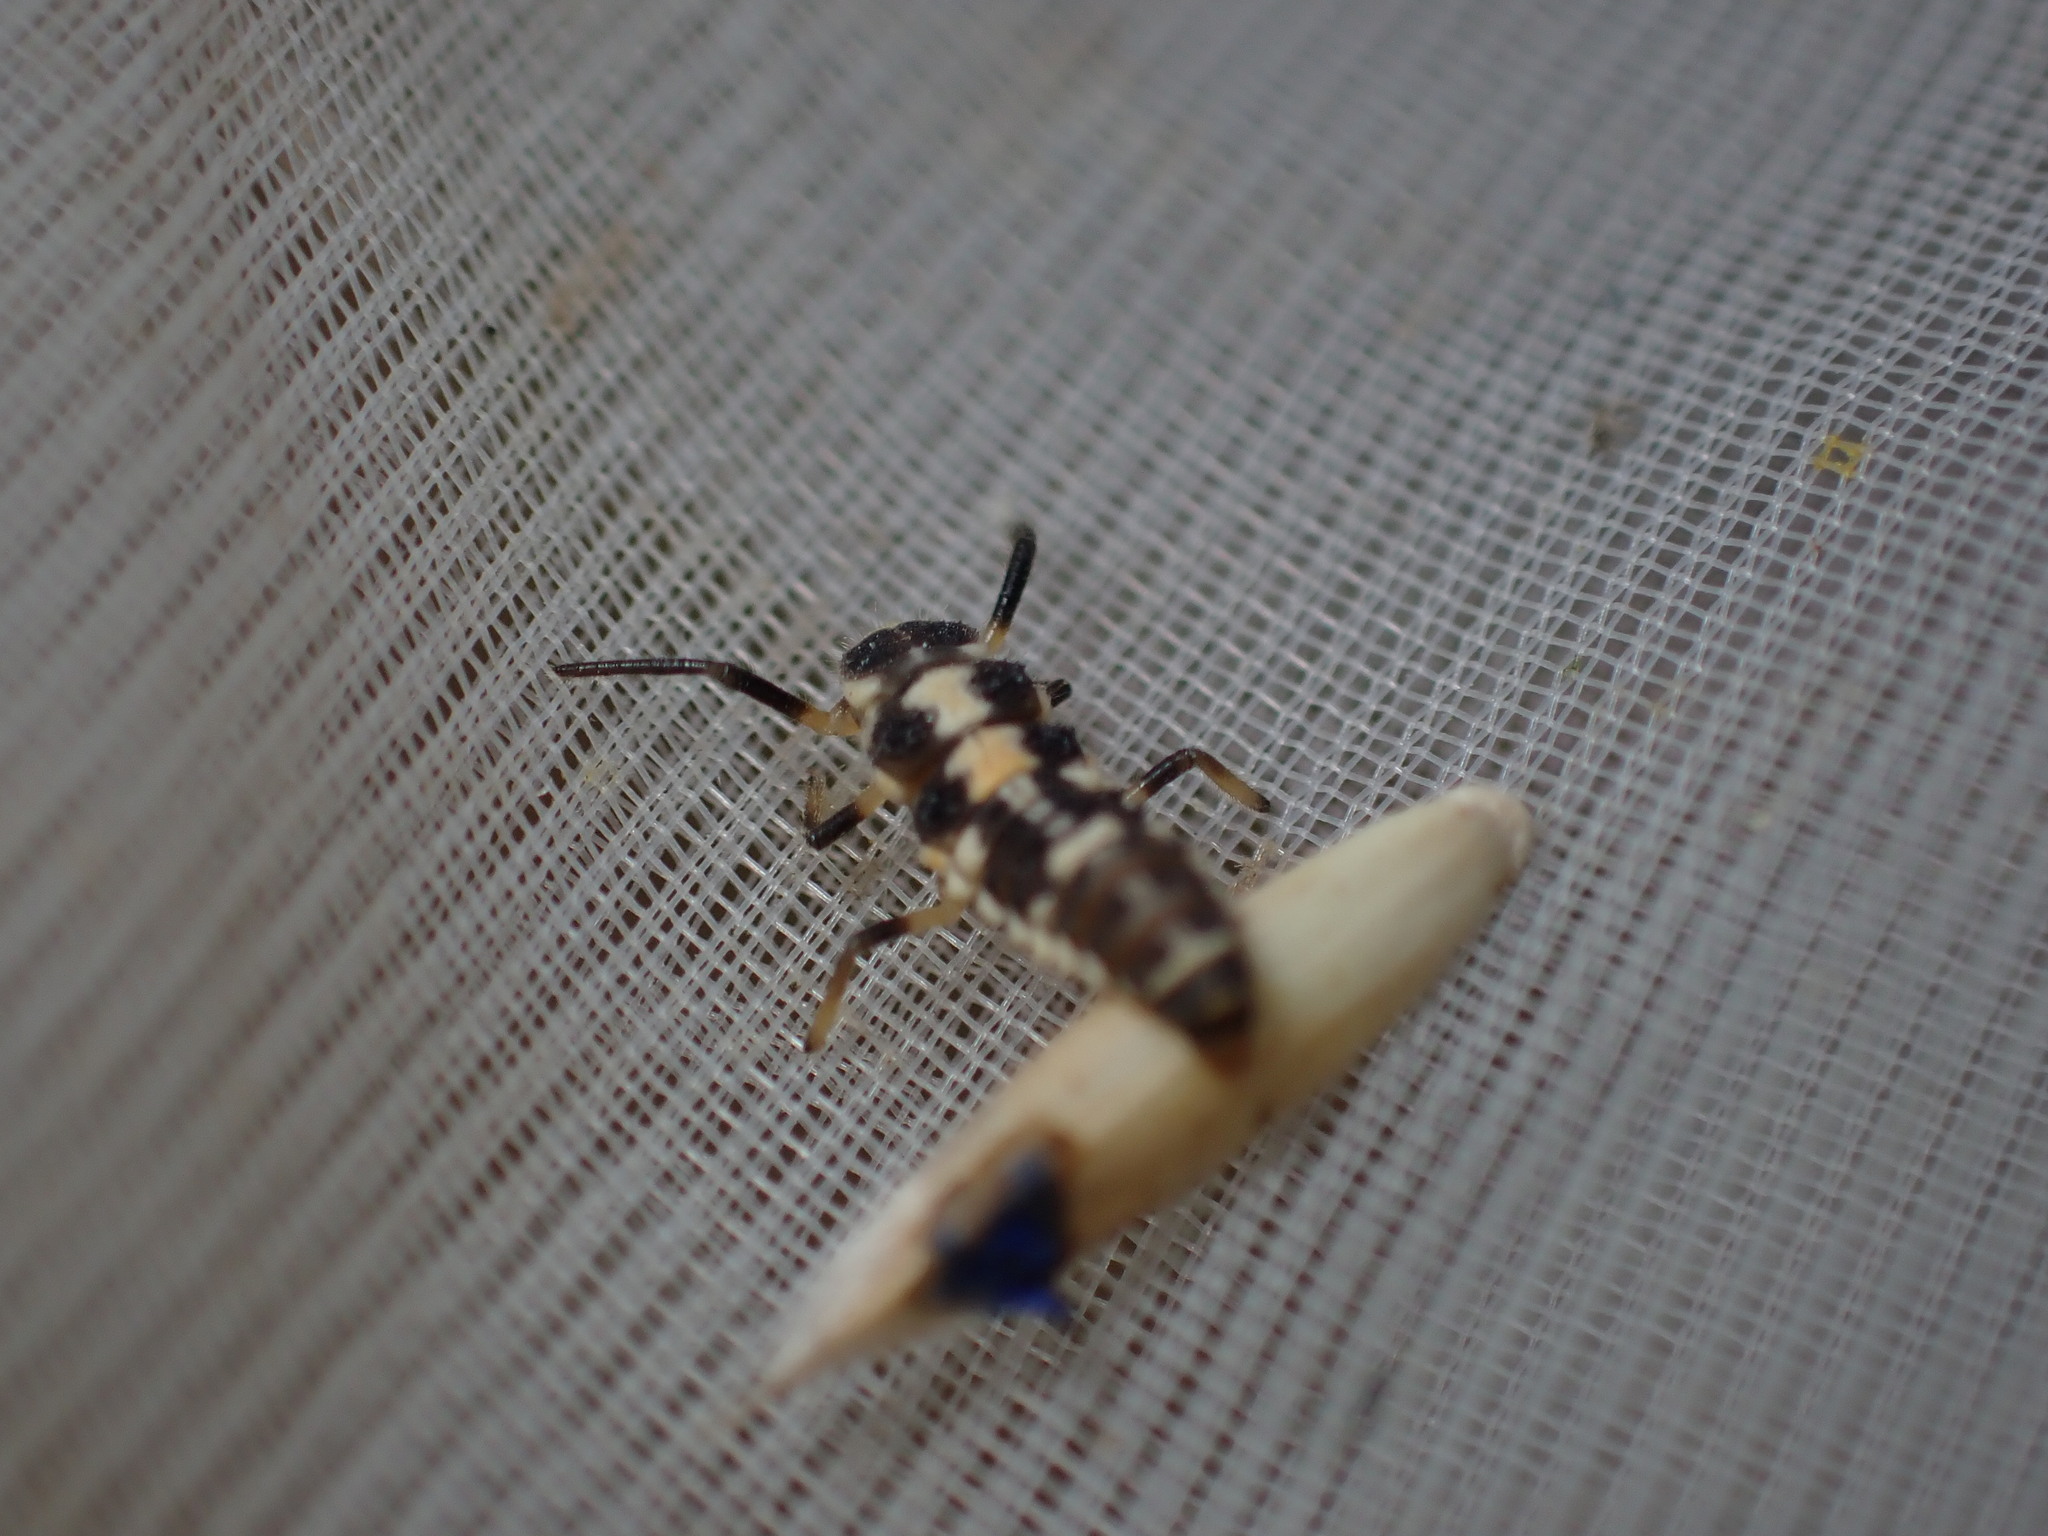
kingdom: Animalia
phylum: Arthropoda
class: Insecta
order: Coleoptera
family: Coccinellidae
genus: Propylaea
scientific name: Propylaea quatuordecimpunctata
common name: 14-spotted ladybird beetle
